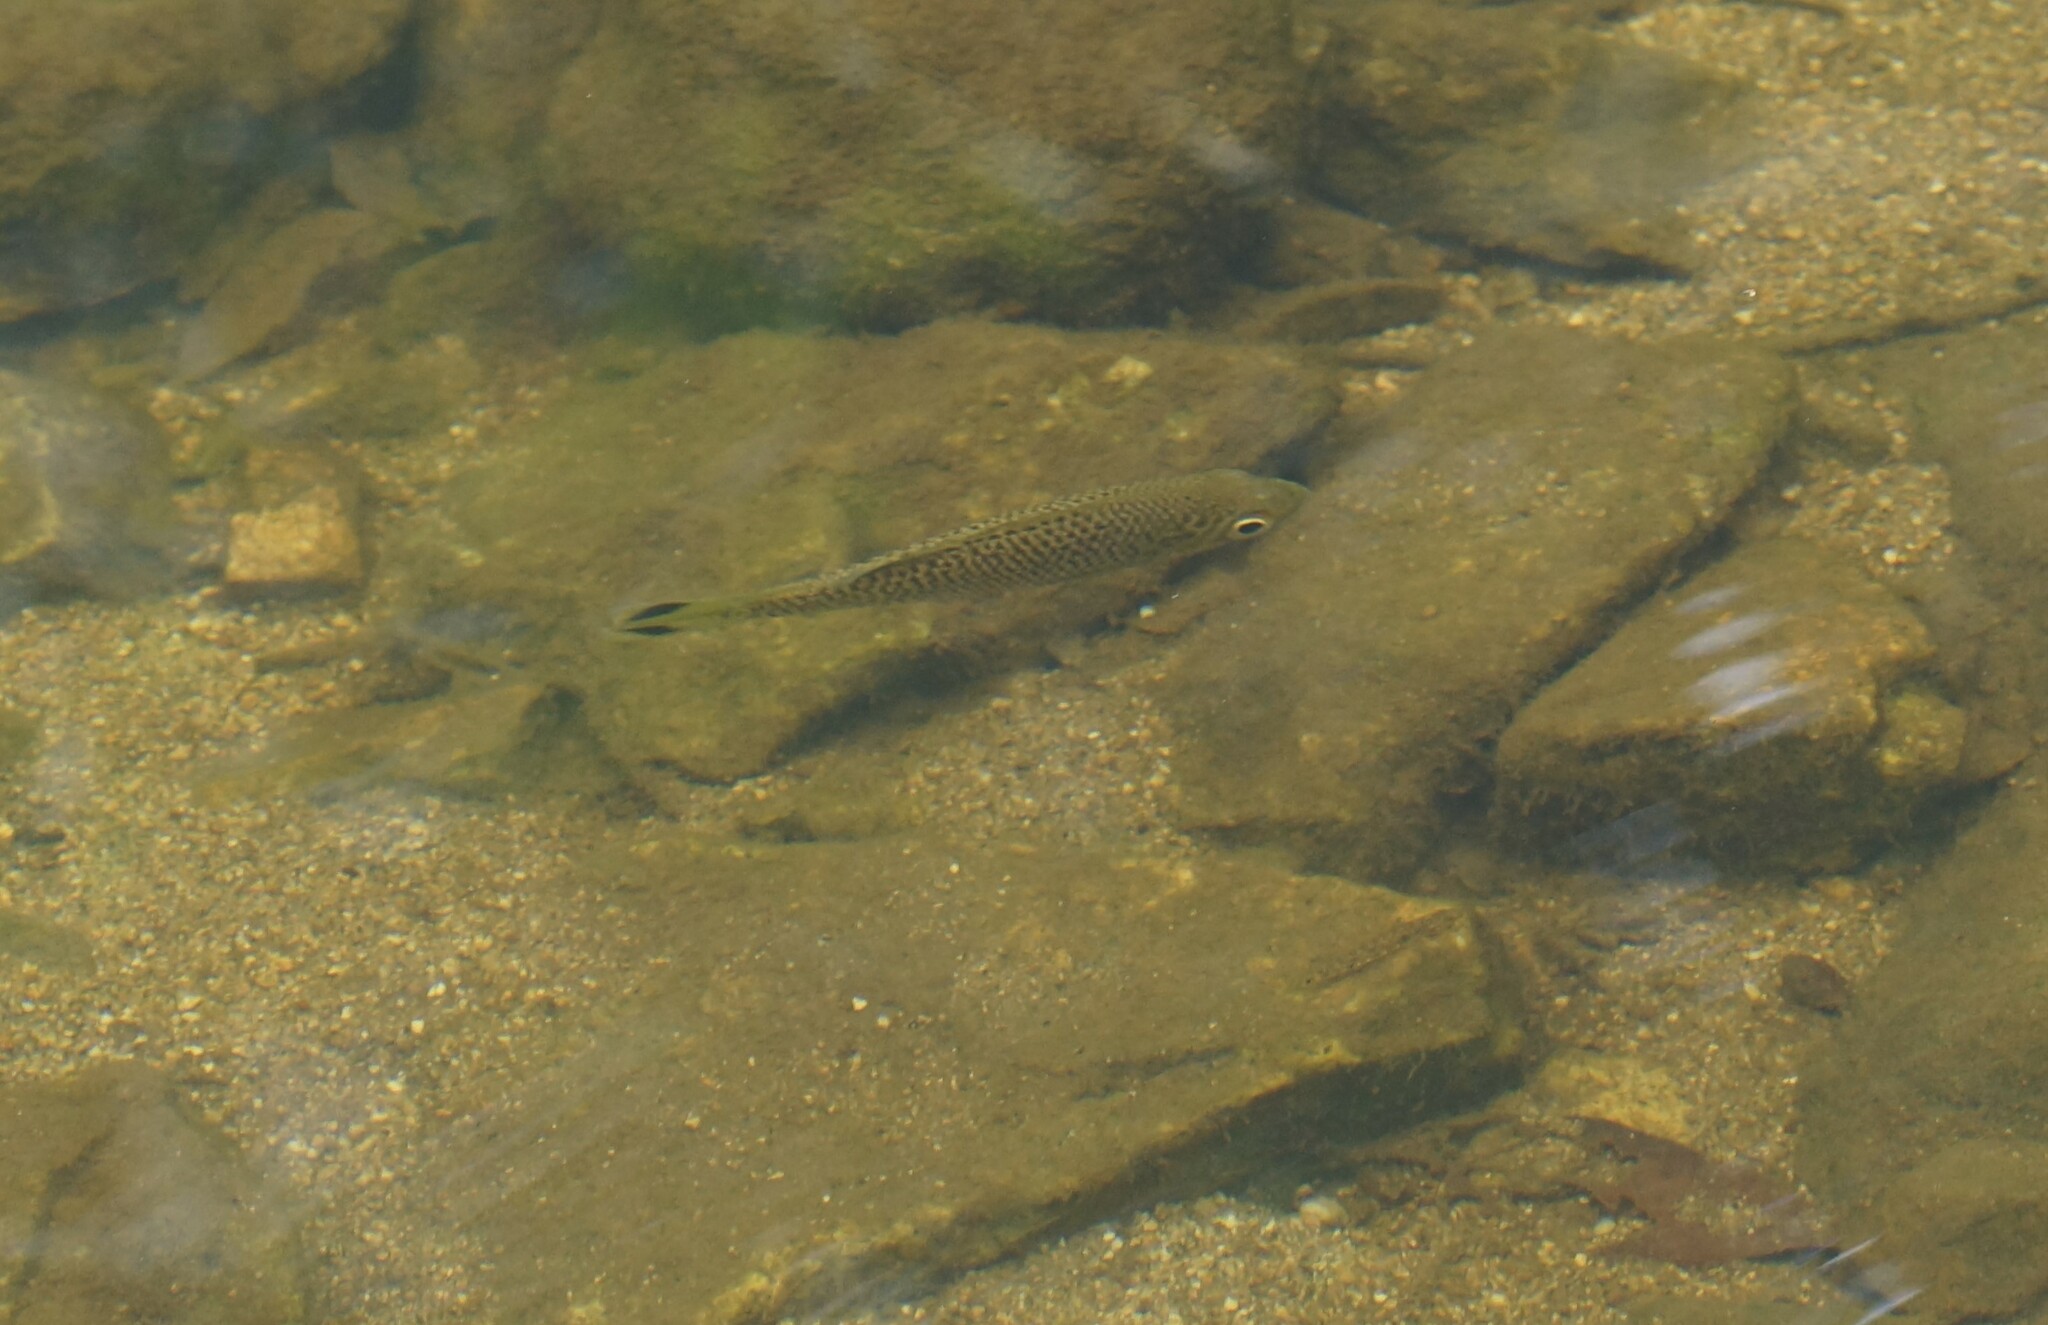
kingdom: Animalia
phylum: Chordata
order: Perciformes
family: Kuhliidae
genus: Kuhlia
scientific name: Kuhlia rupestris
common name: Rock flagtail
